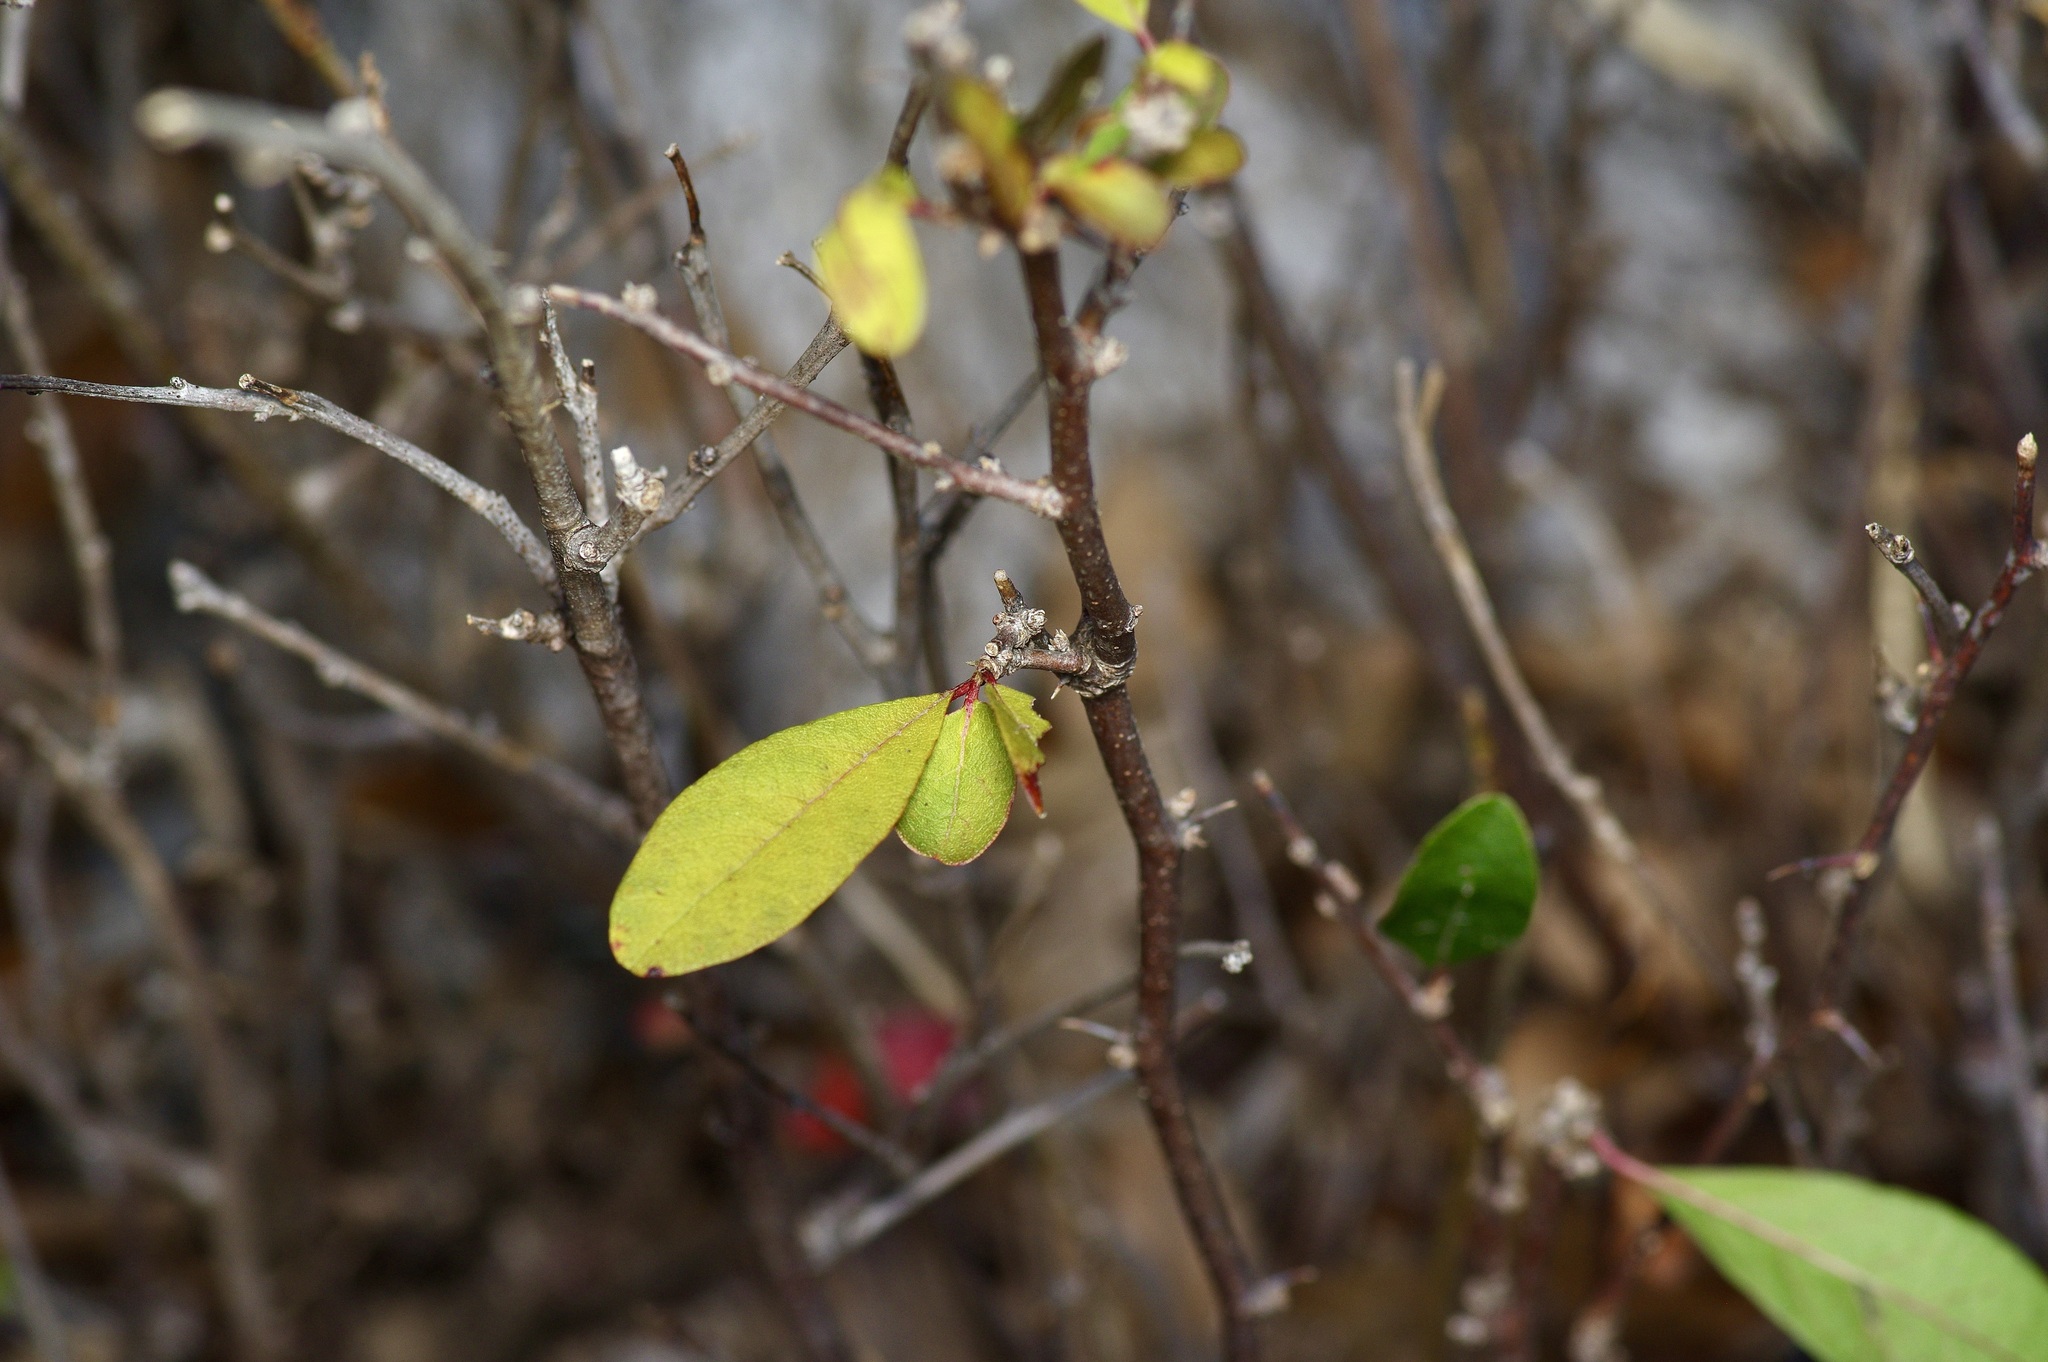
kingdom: Plantae
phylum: Tracheophyta
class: Magnoliopsida
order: Ericales
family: Sapotaceae
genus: Sideroxylon
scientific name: Sideroxylon lanuginosum
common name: Chittamwood
